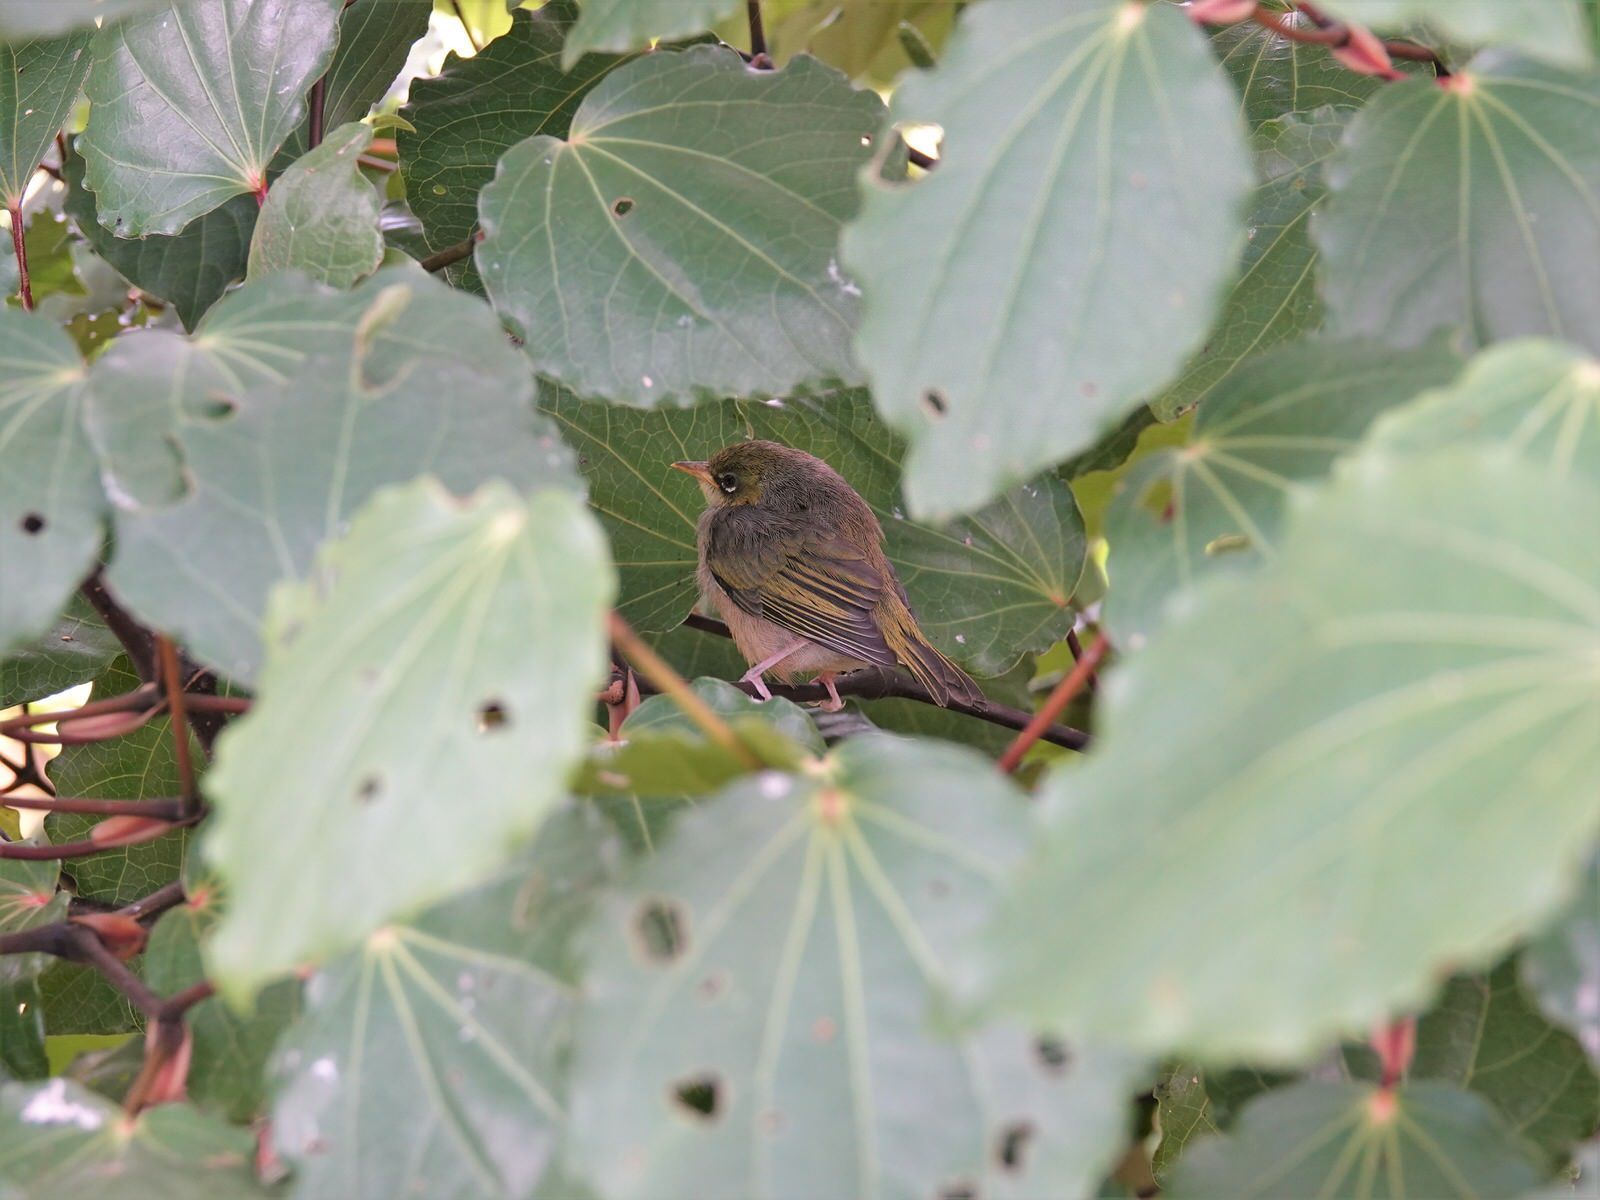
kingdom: Animalia
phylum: Chordata
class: Aves
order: Passeriformes
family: Zosteropidae
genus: Zosterops
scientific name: Zosterops lateralis
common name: Silvereye
